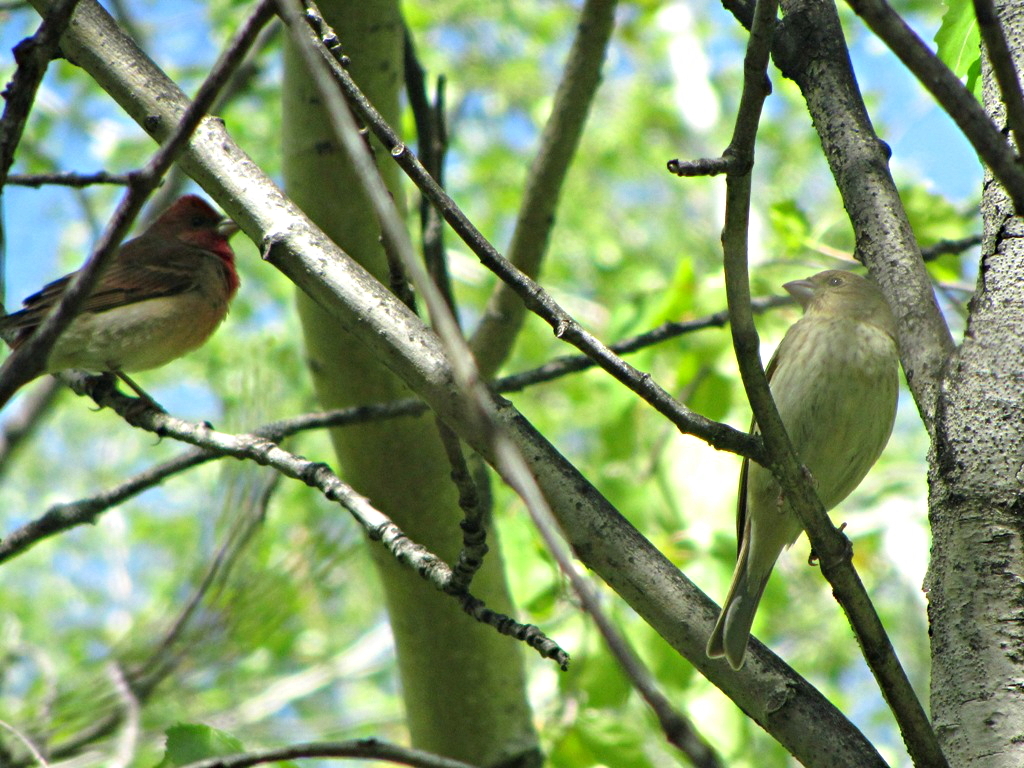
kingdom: Animalia
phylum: Chordata
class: Aves
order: Passeriformes
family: Fringillidae
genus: Carpodacus
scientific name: Carpodacus erythrinus
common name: Common rosefinch
